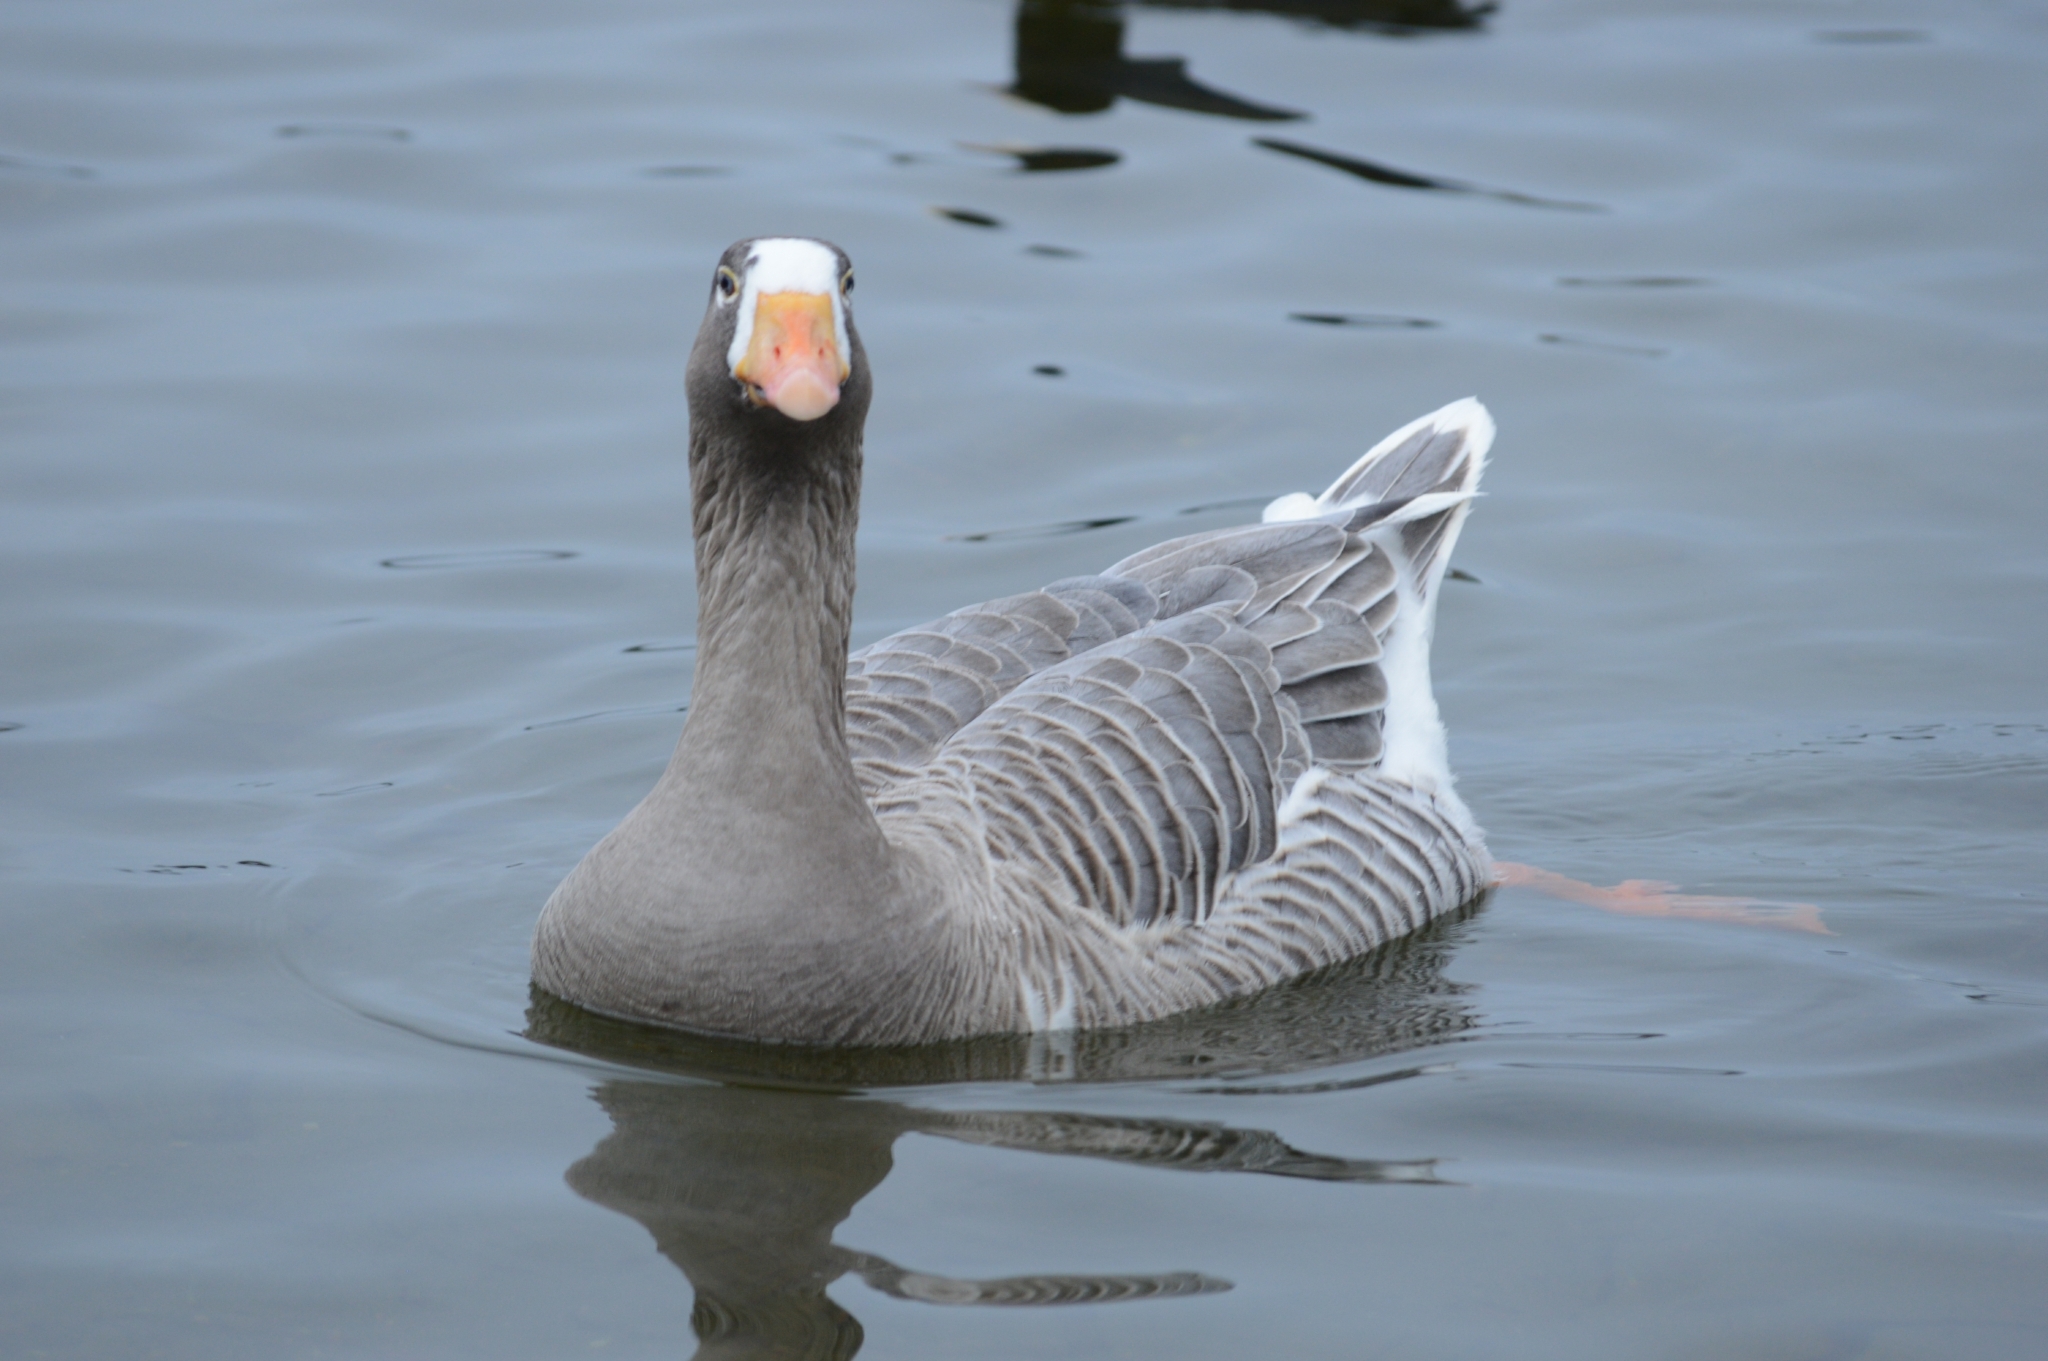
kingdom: Animalia
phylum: Chordata
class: Aves
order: Anseriformes
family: Anatidae
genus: Anser
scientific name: Anser anser
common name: Greylag goose
